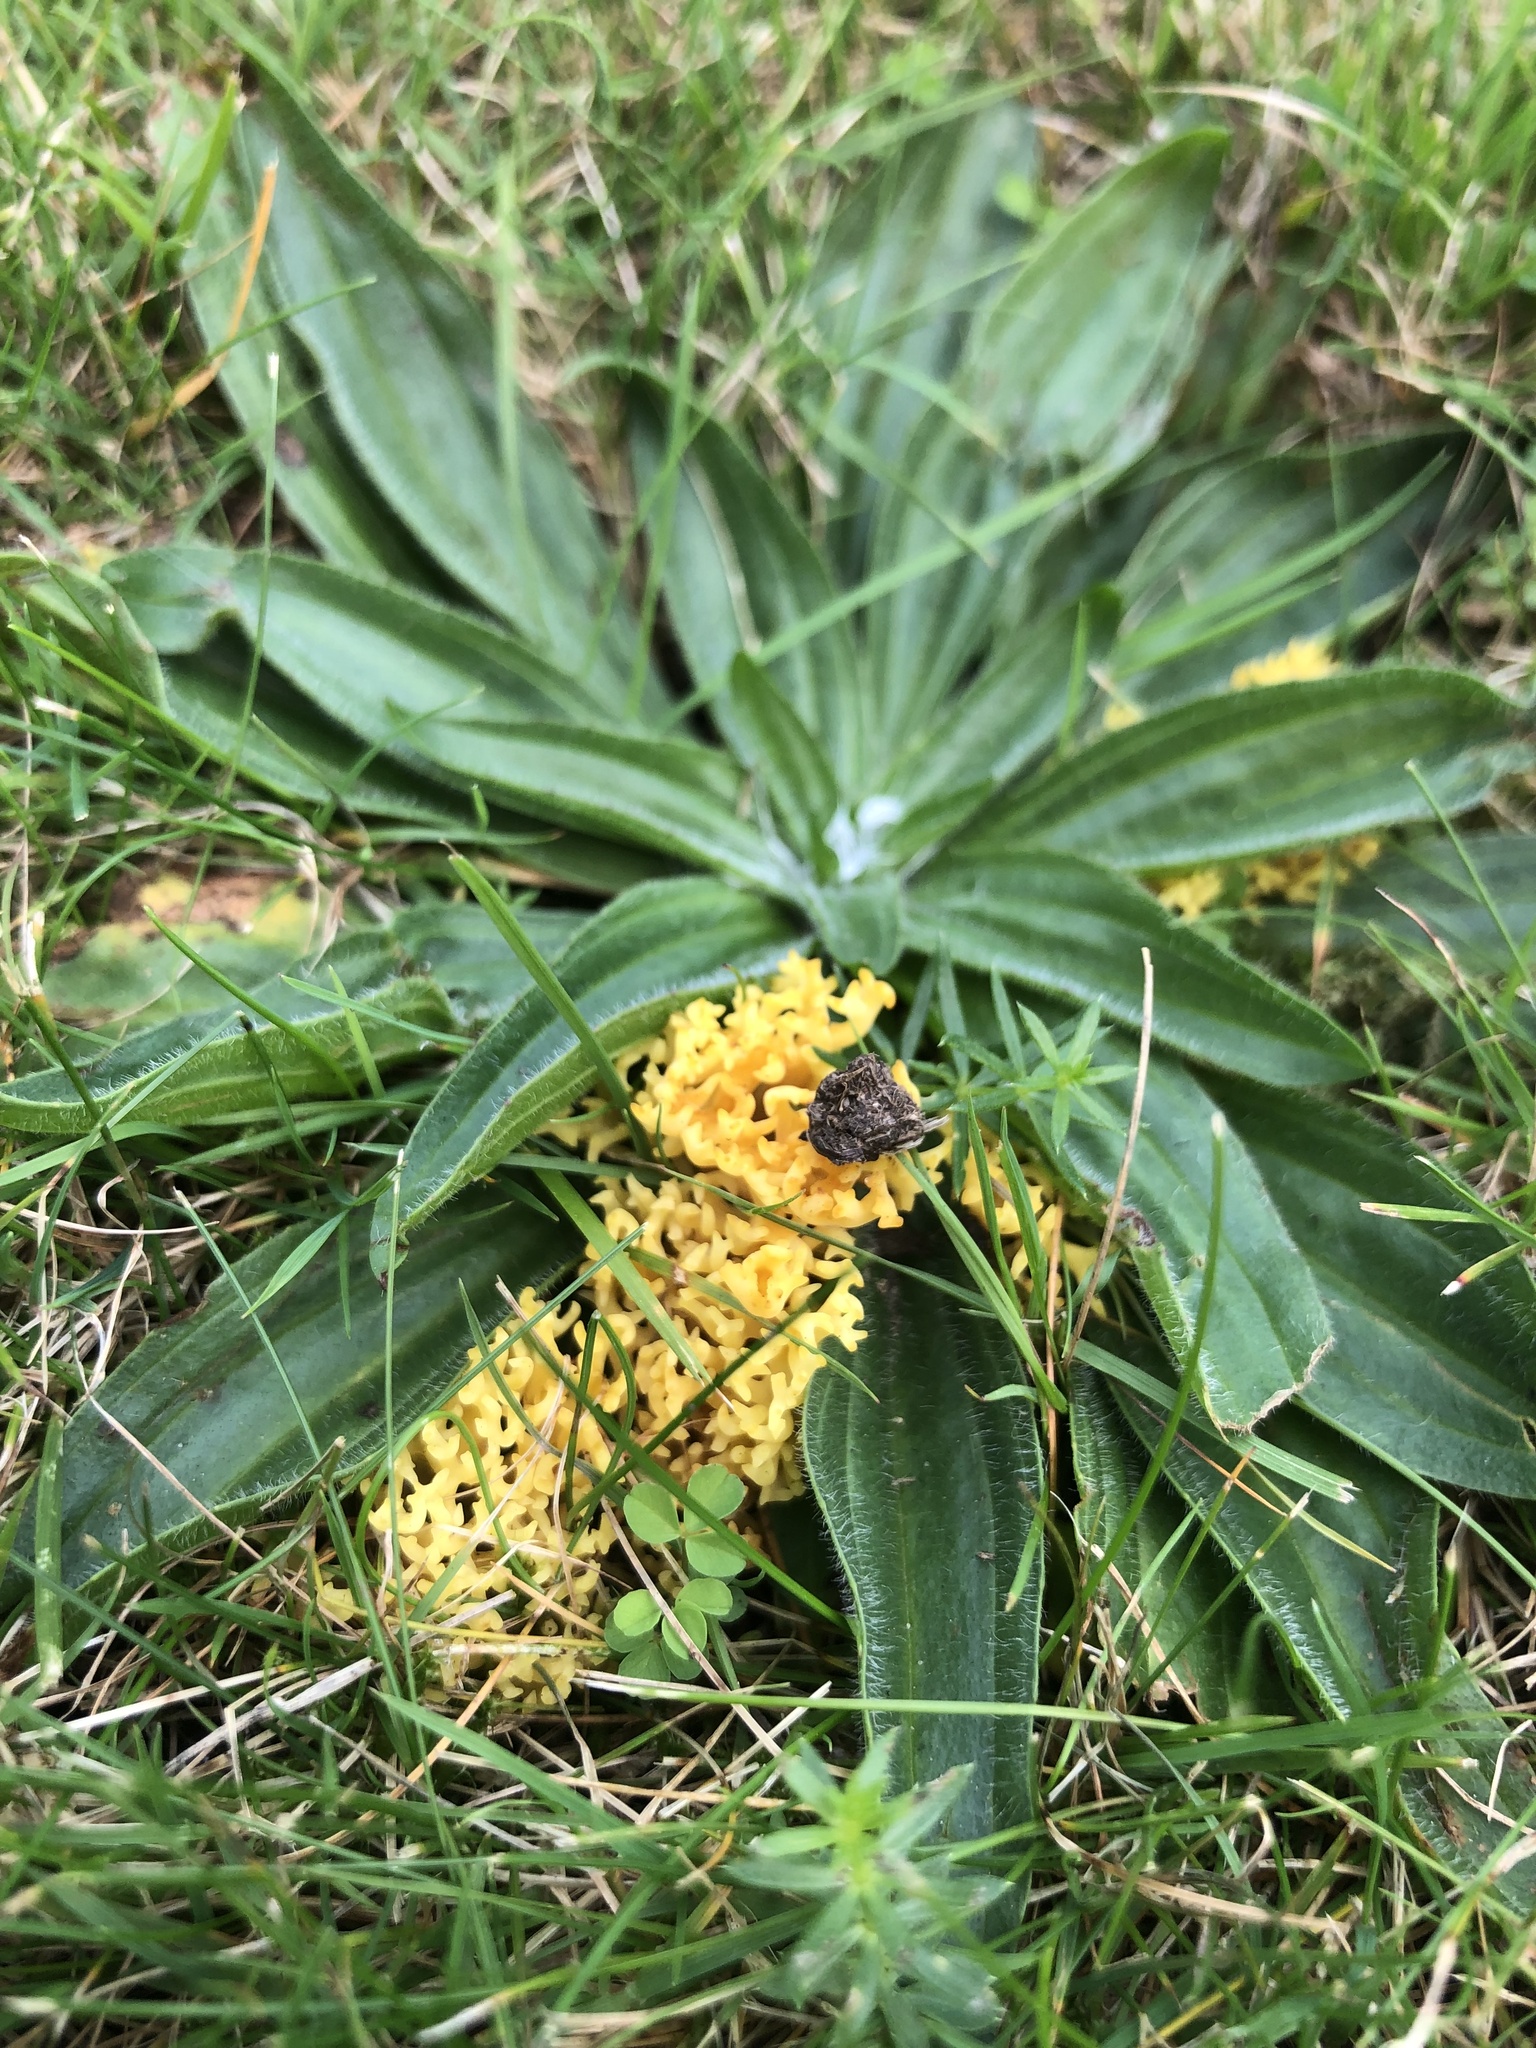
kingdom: Fungi
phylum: Basidiomycota
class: Agaricomycetes
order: Agaricales
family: Clavariaceae
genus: Clavulinopsis
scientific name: Clavulinopsis corniculata
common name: Meadow coral
